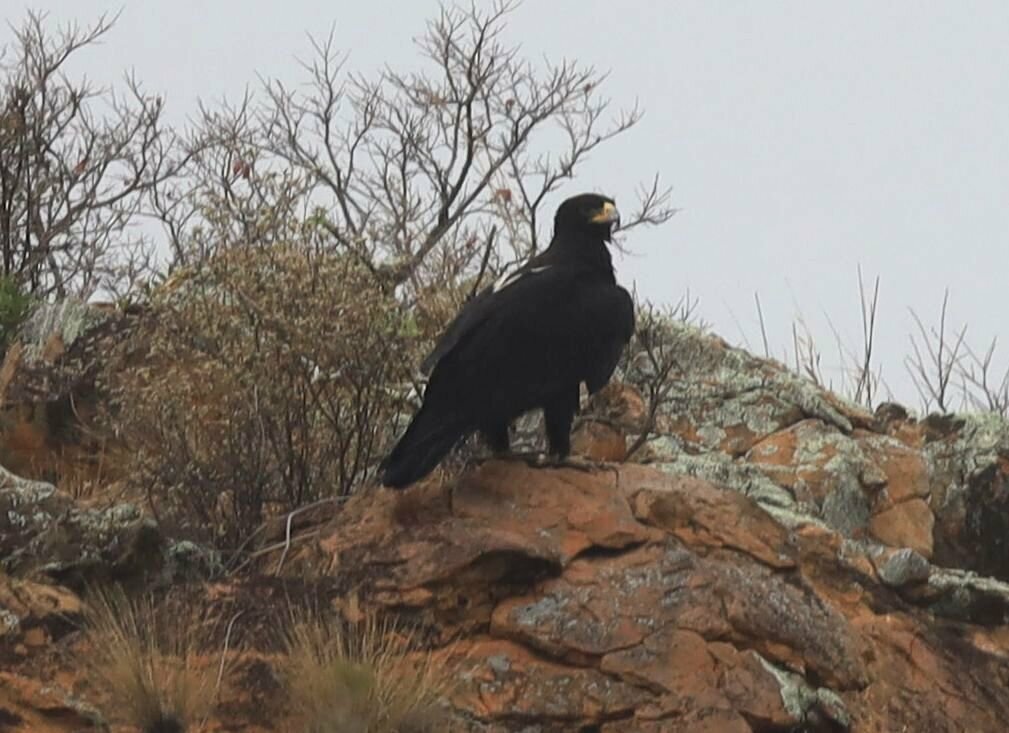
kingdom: Animalia
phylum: Chordata
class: Aves
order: Accipitriformes
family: Accipitridae
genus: Aquila
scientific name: Aquila verreauxii
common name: Verreaux's eagle
